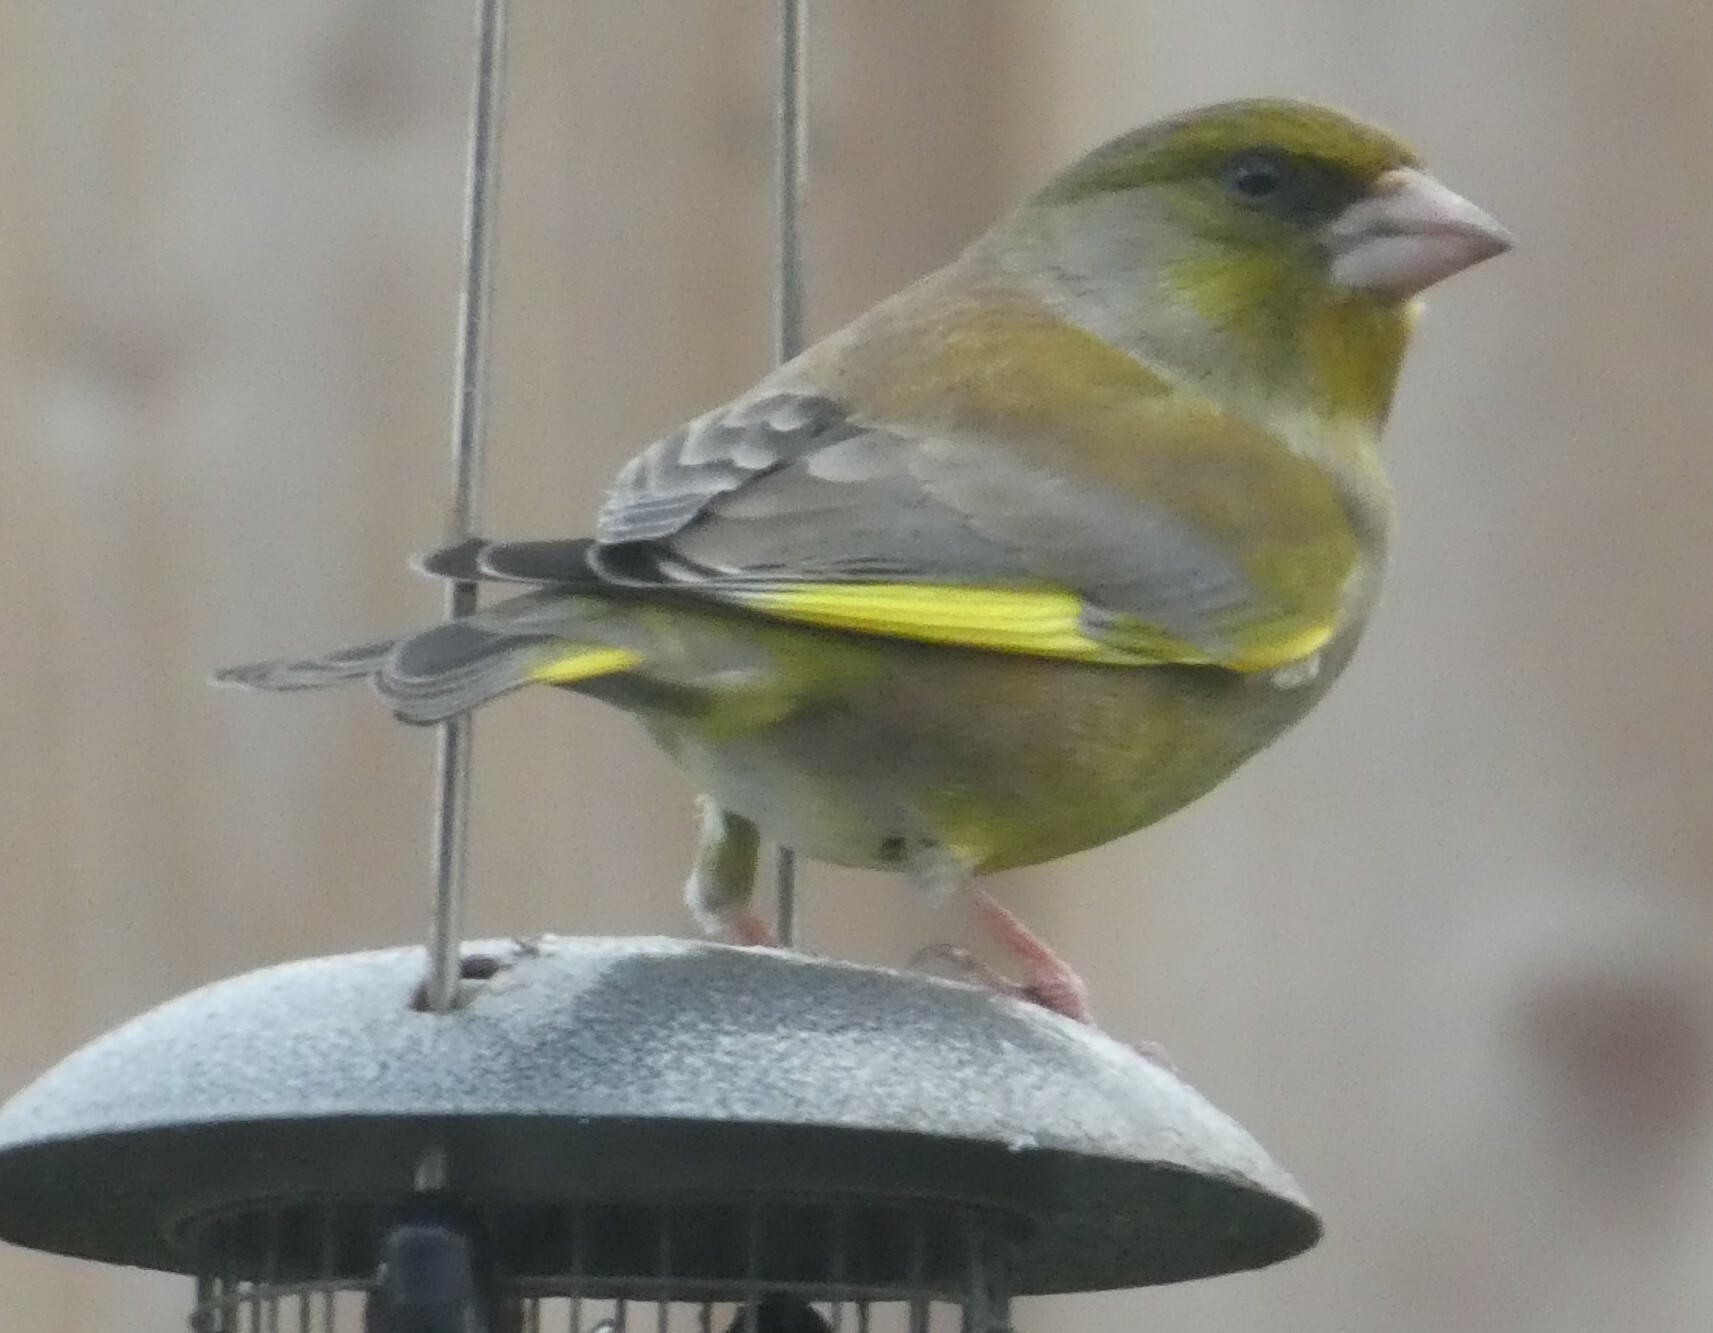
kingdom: Plantae
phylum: Tracheophyta
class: Liliopsida
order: Poales
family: Poaceae
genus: Chloris
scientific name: Chloris chloris
